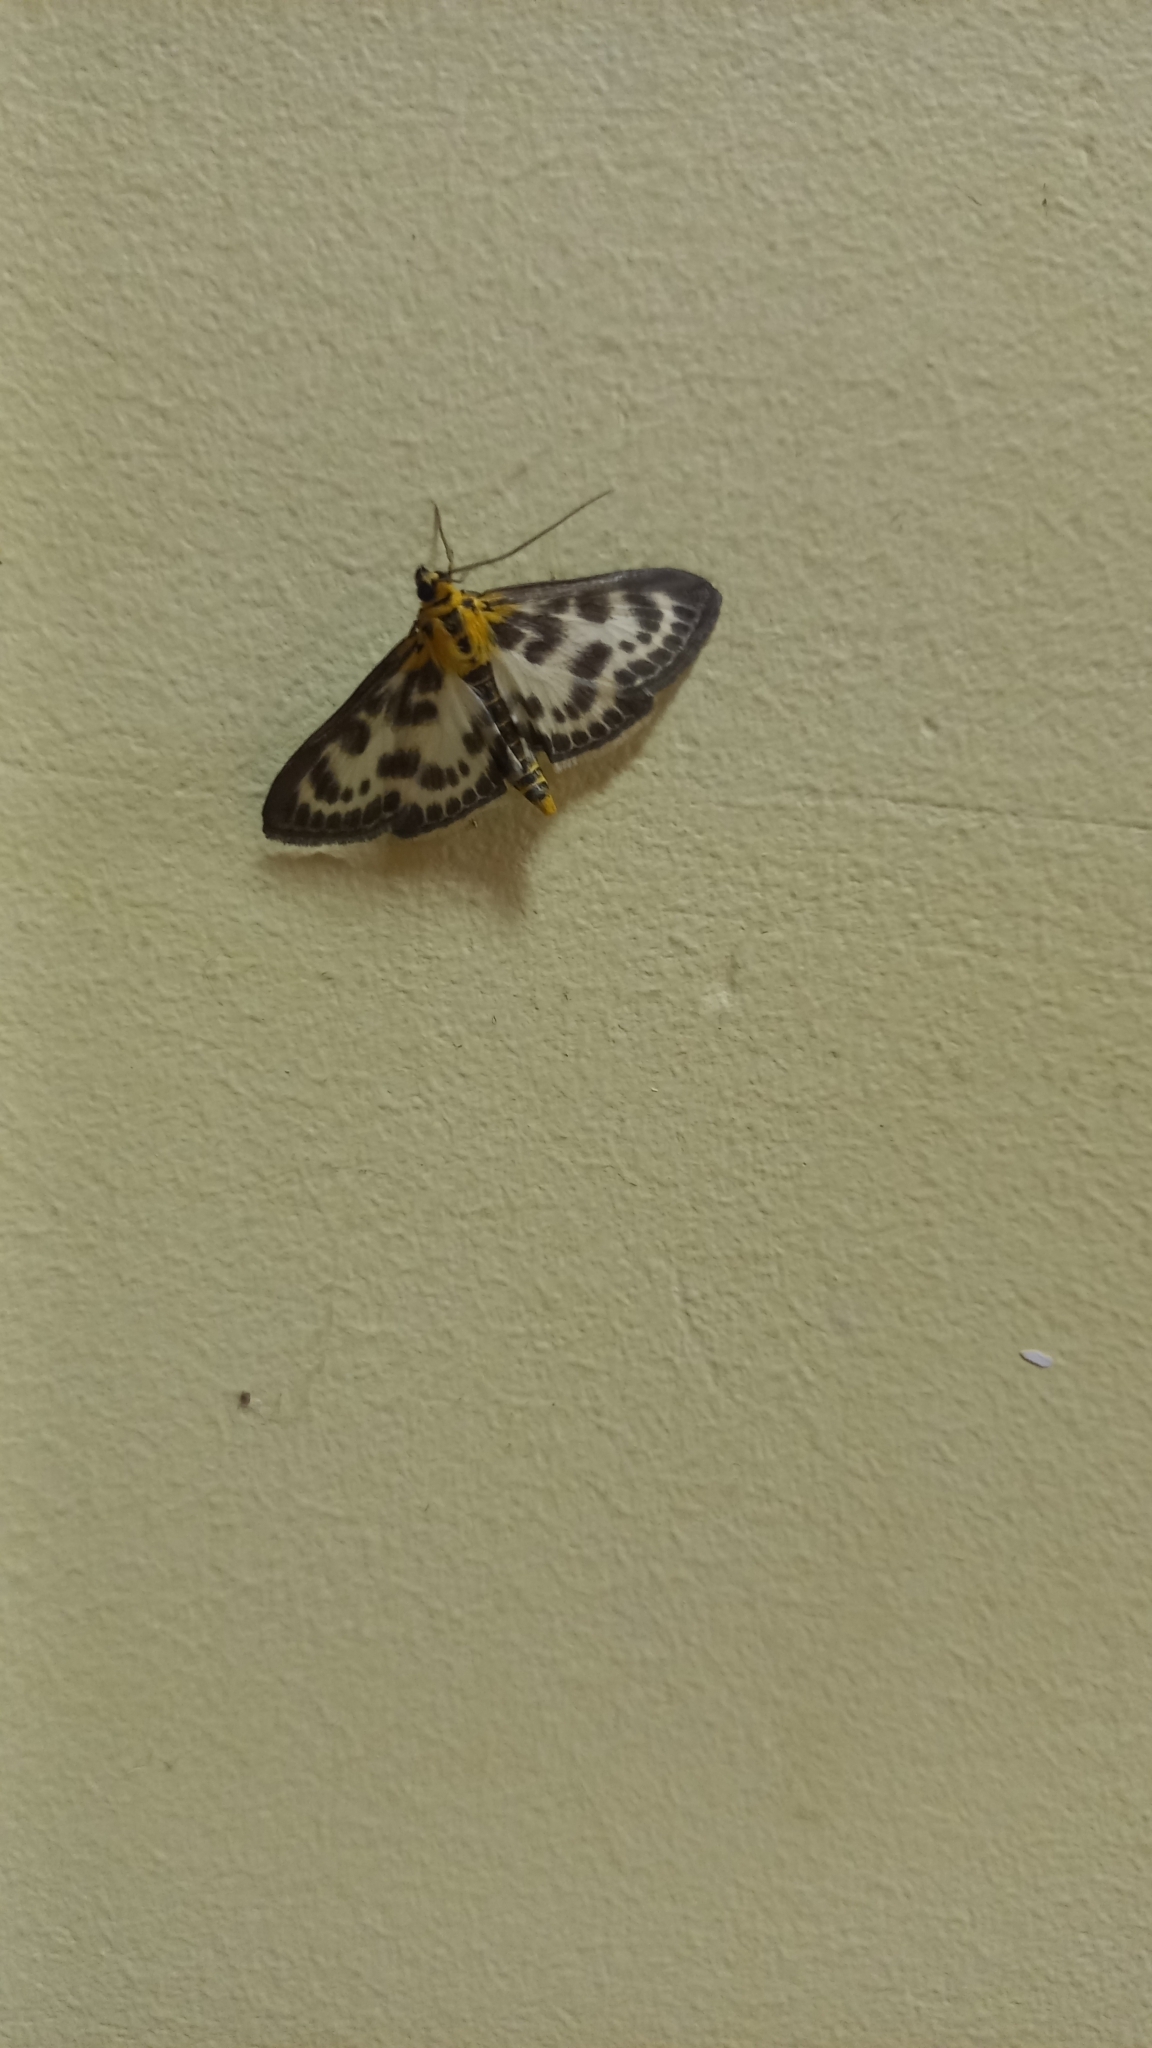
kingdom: Animalia
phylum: Arthropoda
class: Insecta
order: Lepidoptera
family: Crambidae
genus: Anania
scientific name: Anania hortulata
